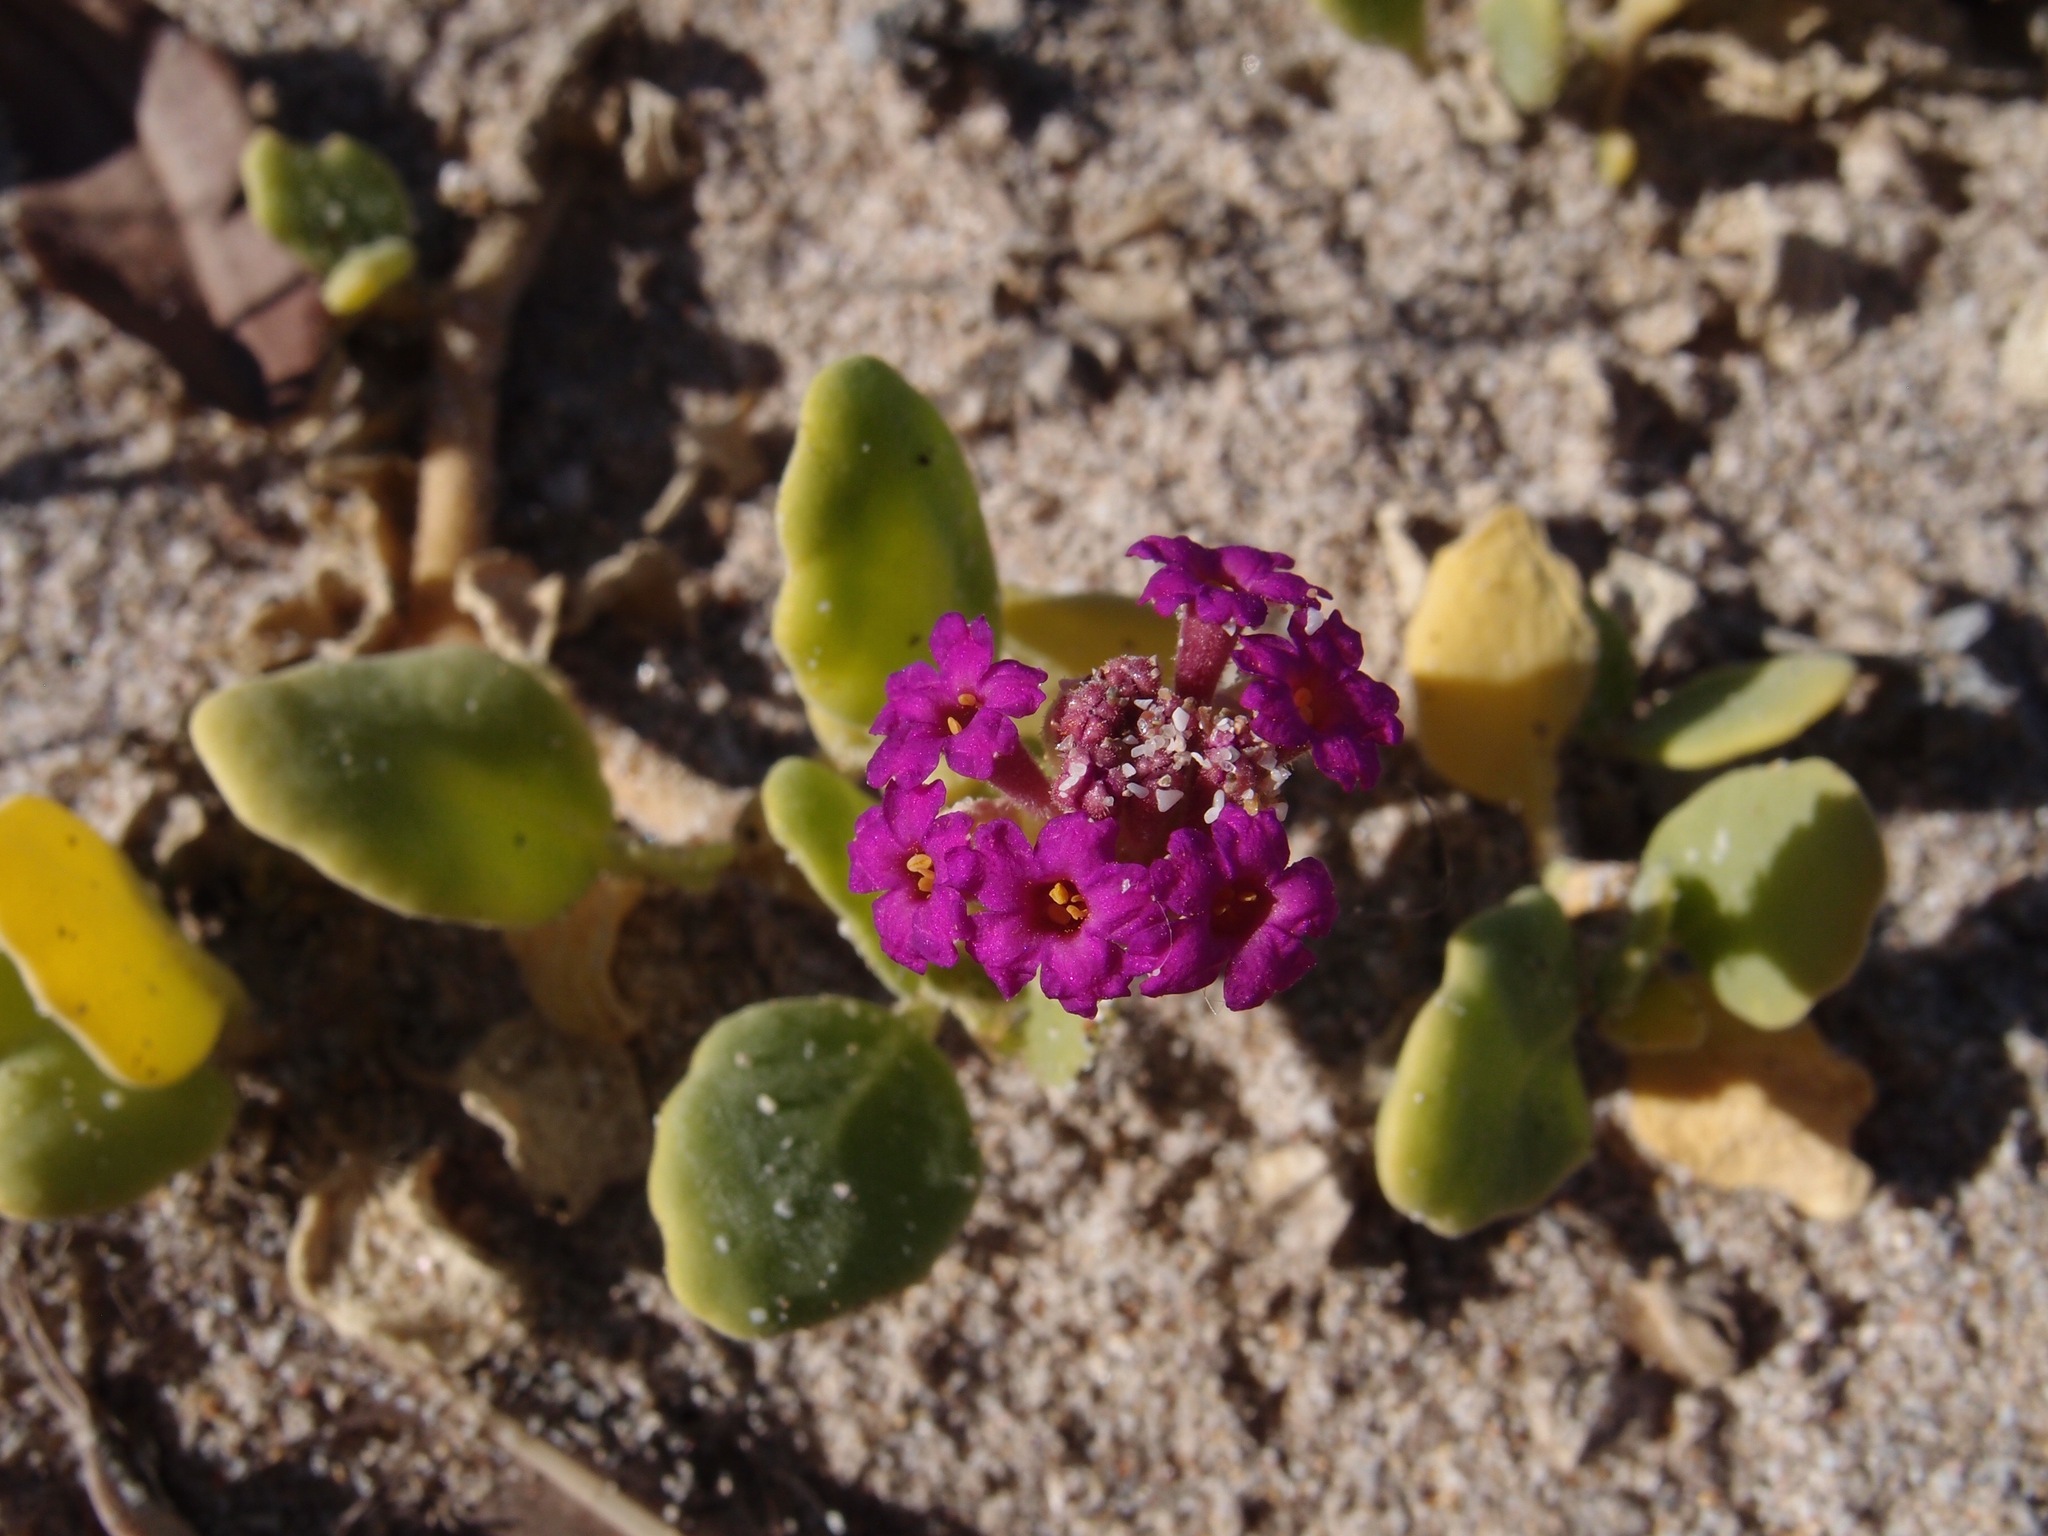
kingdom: Plantae
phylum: Tracheophyta
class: Magnoliopsida
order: Caryophyllales
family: Nyctaginaceae
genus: Abronia
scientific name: Abronia maritima
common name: Red sand-verbena
